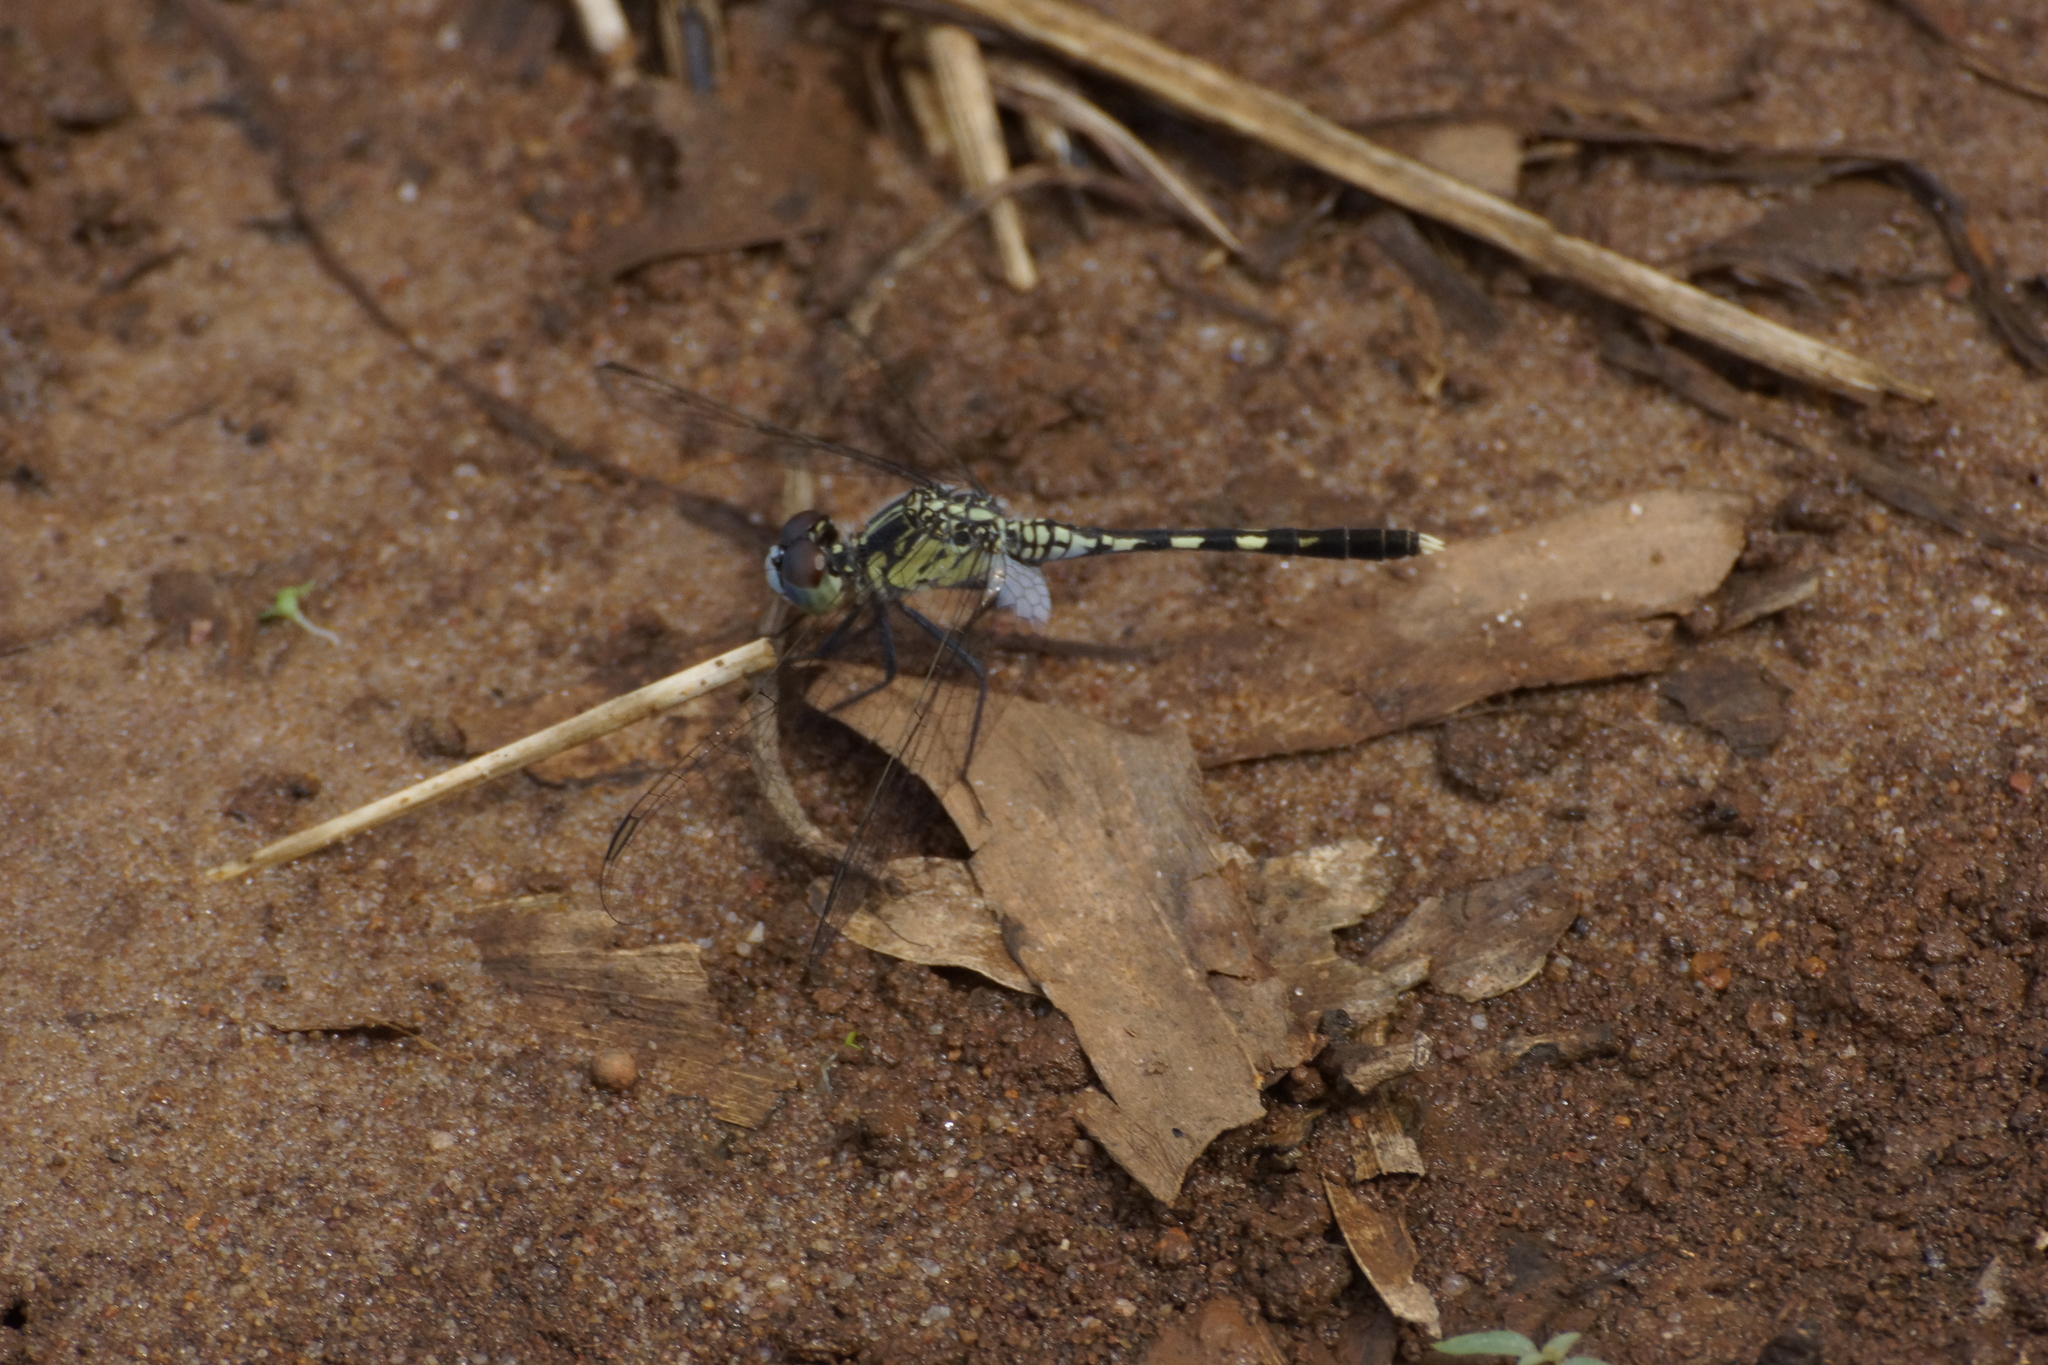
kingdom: Animalia
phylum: Arthropoda
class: Insecta
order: Odonata
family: Libellulidae
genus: Diplacodes
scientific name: Diplacodes trivialis
